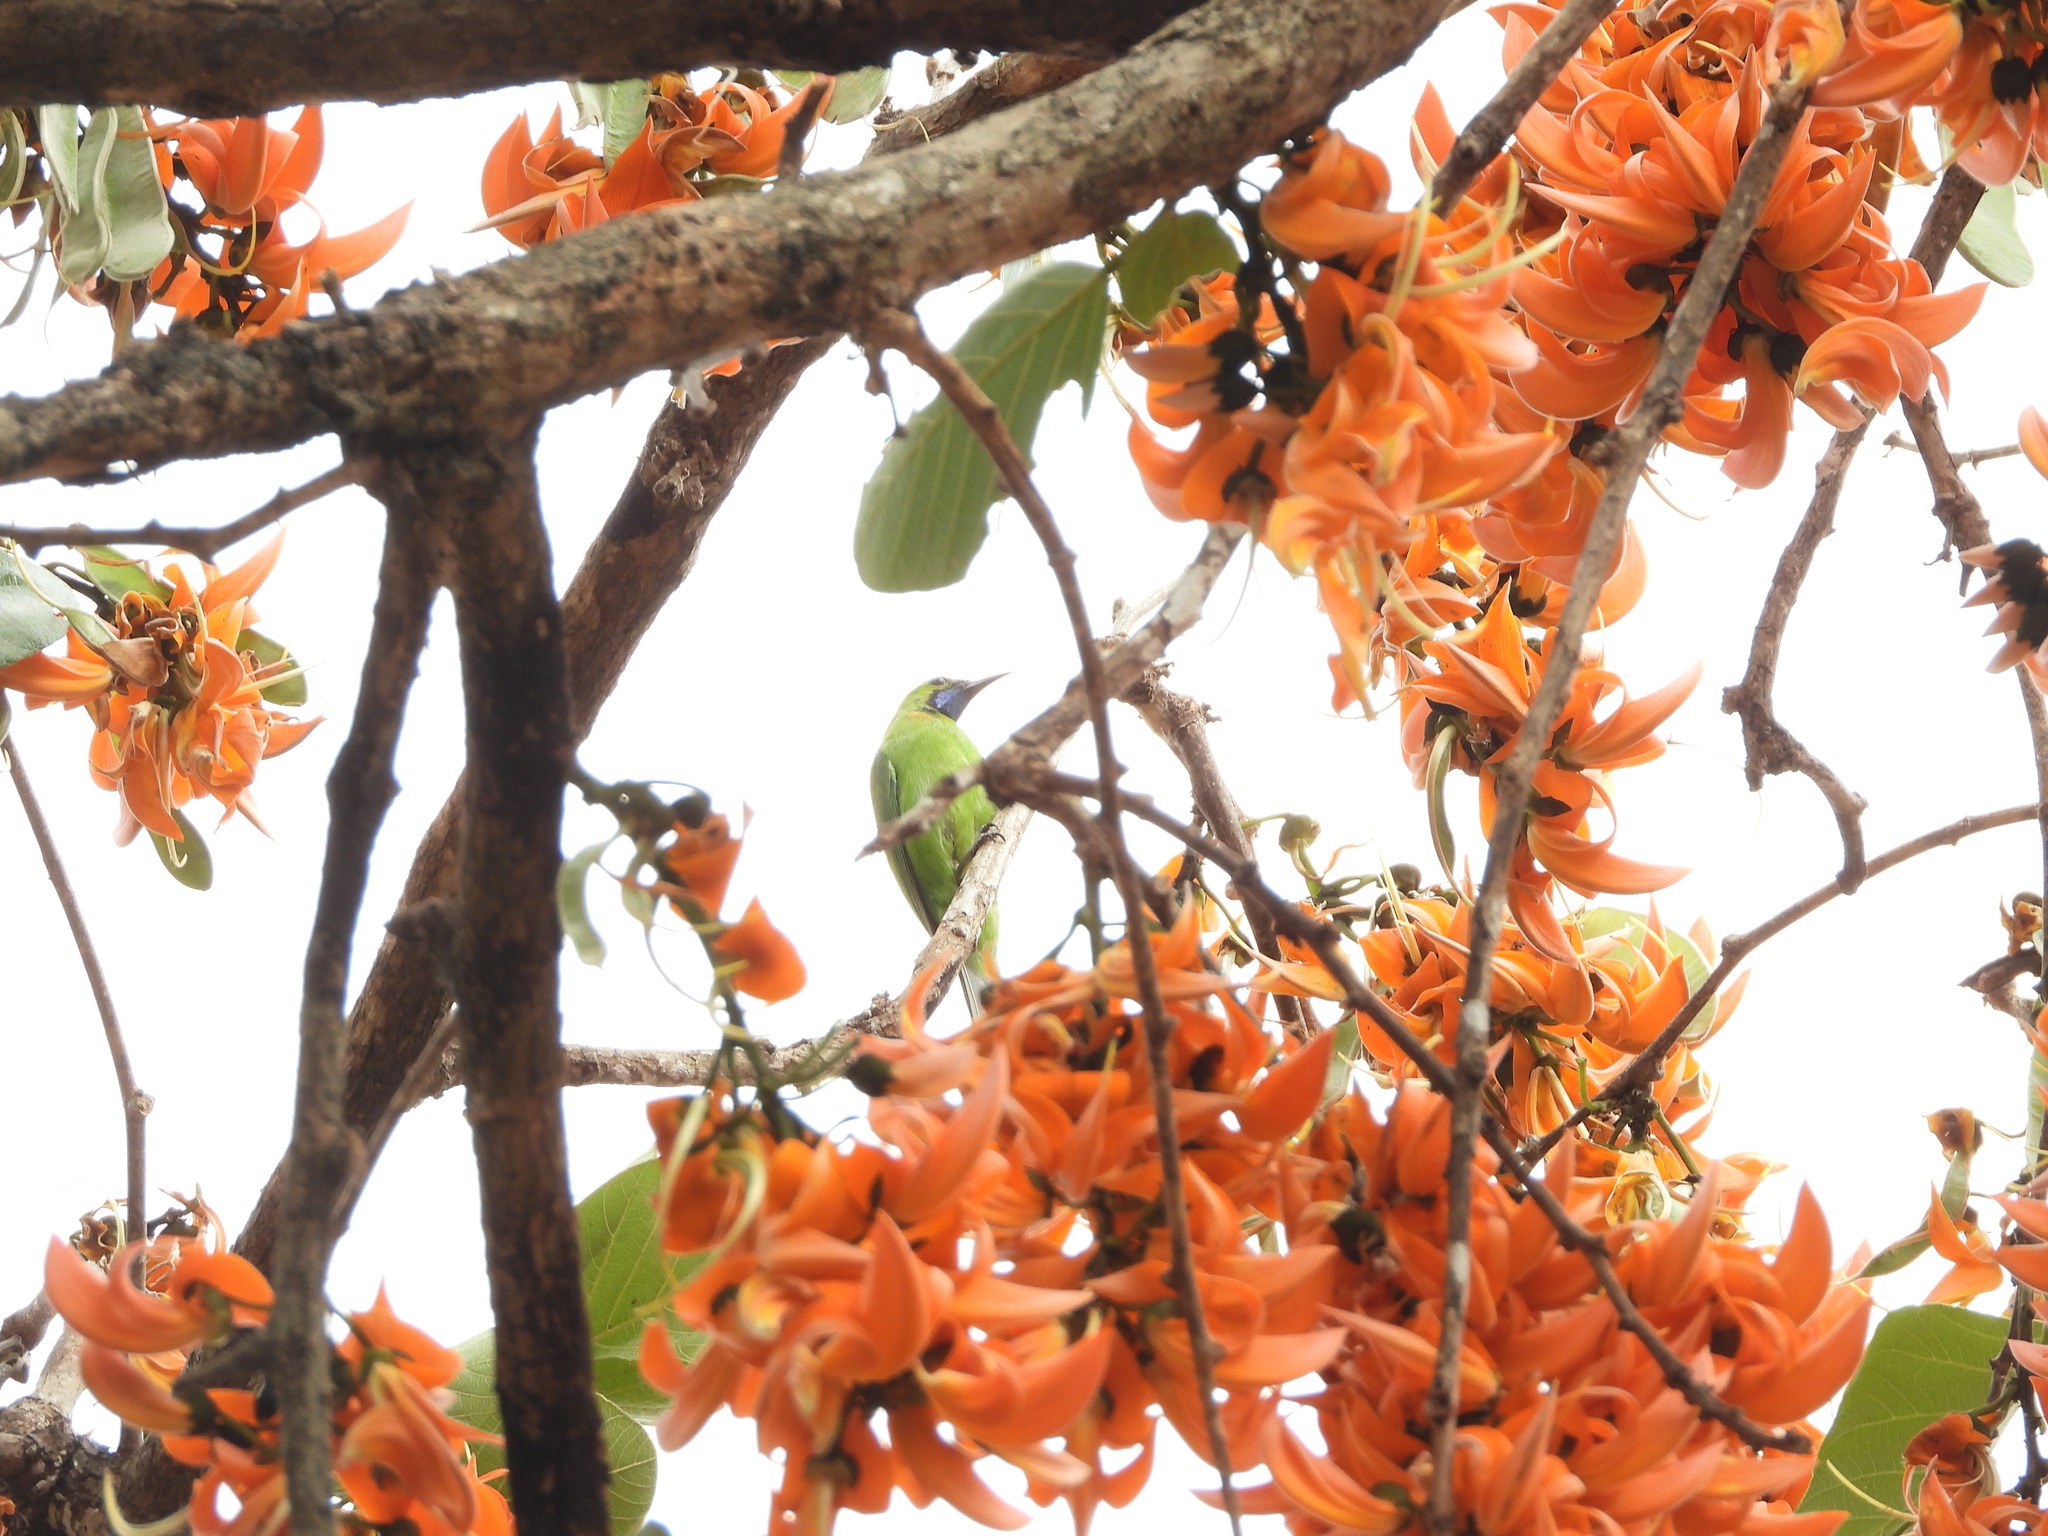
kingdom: Animalia
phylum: Chordata
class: Aves
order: Passeriformes
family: Chloropseidae
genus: Chloropsis
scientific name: Chloropsis aurifrons
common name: Golden-fronted leafbird
